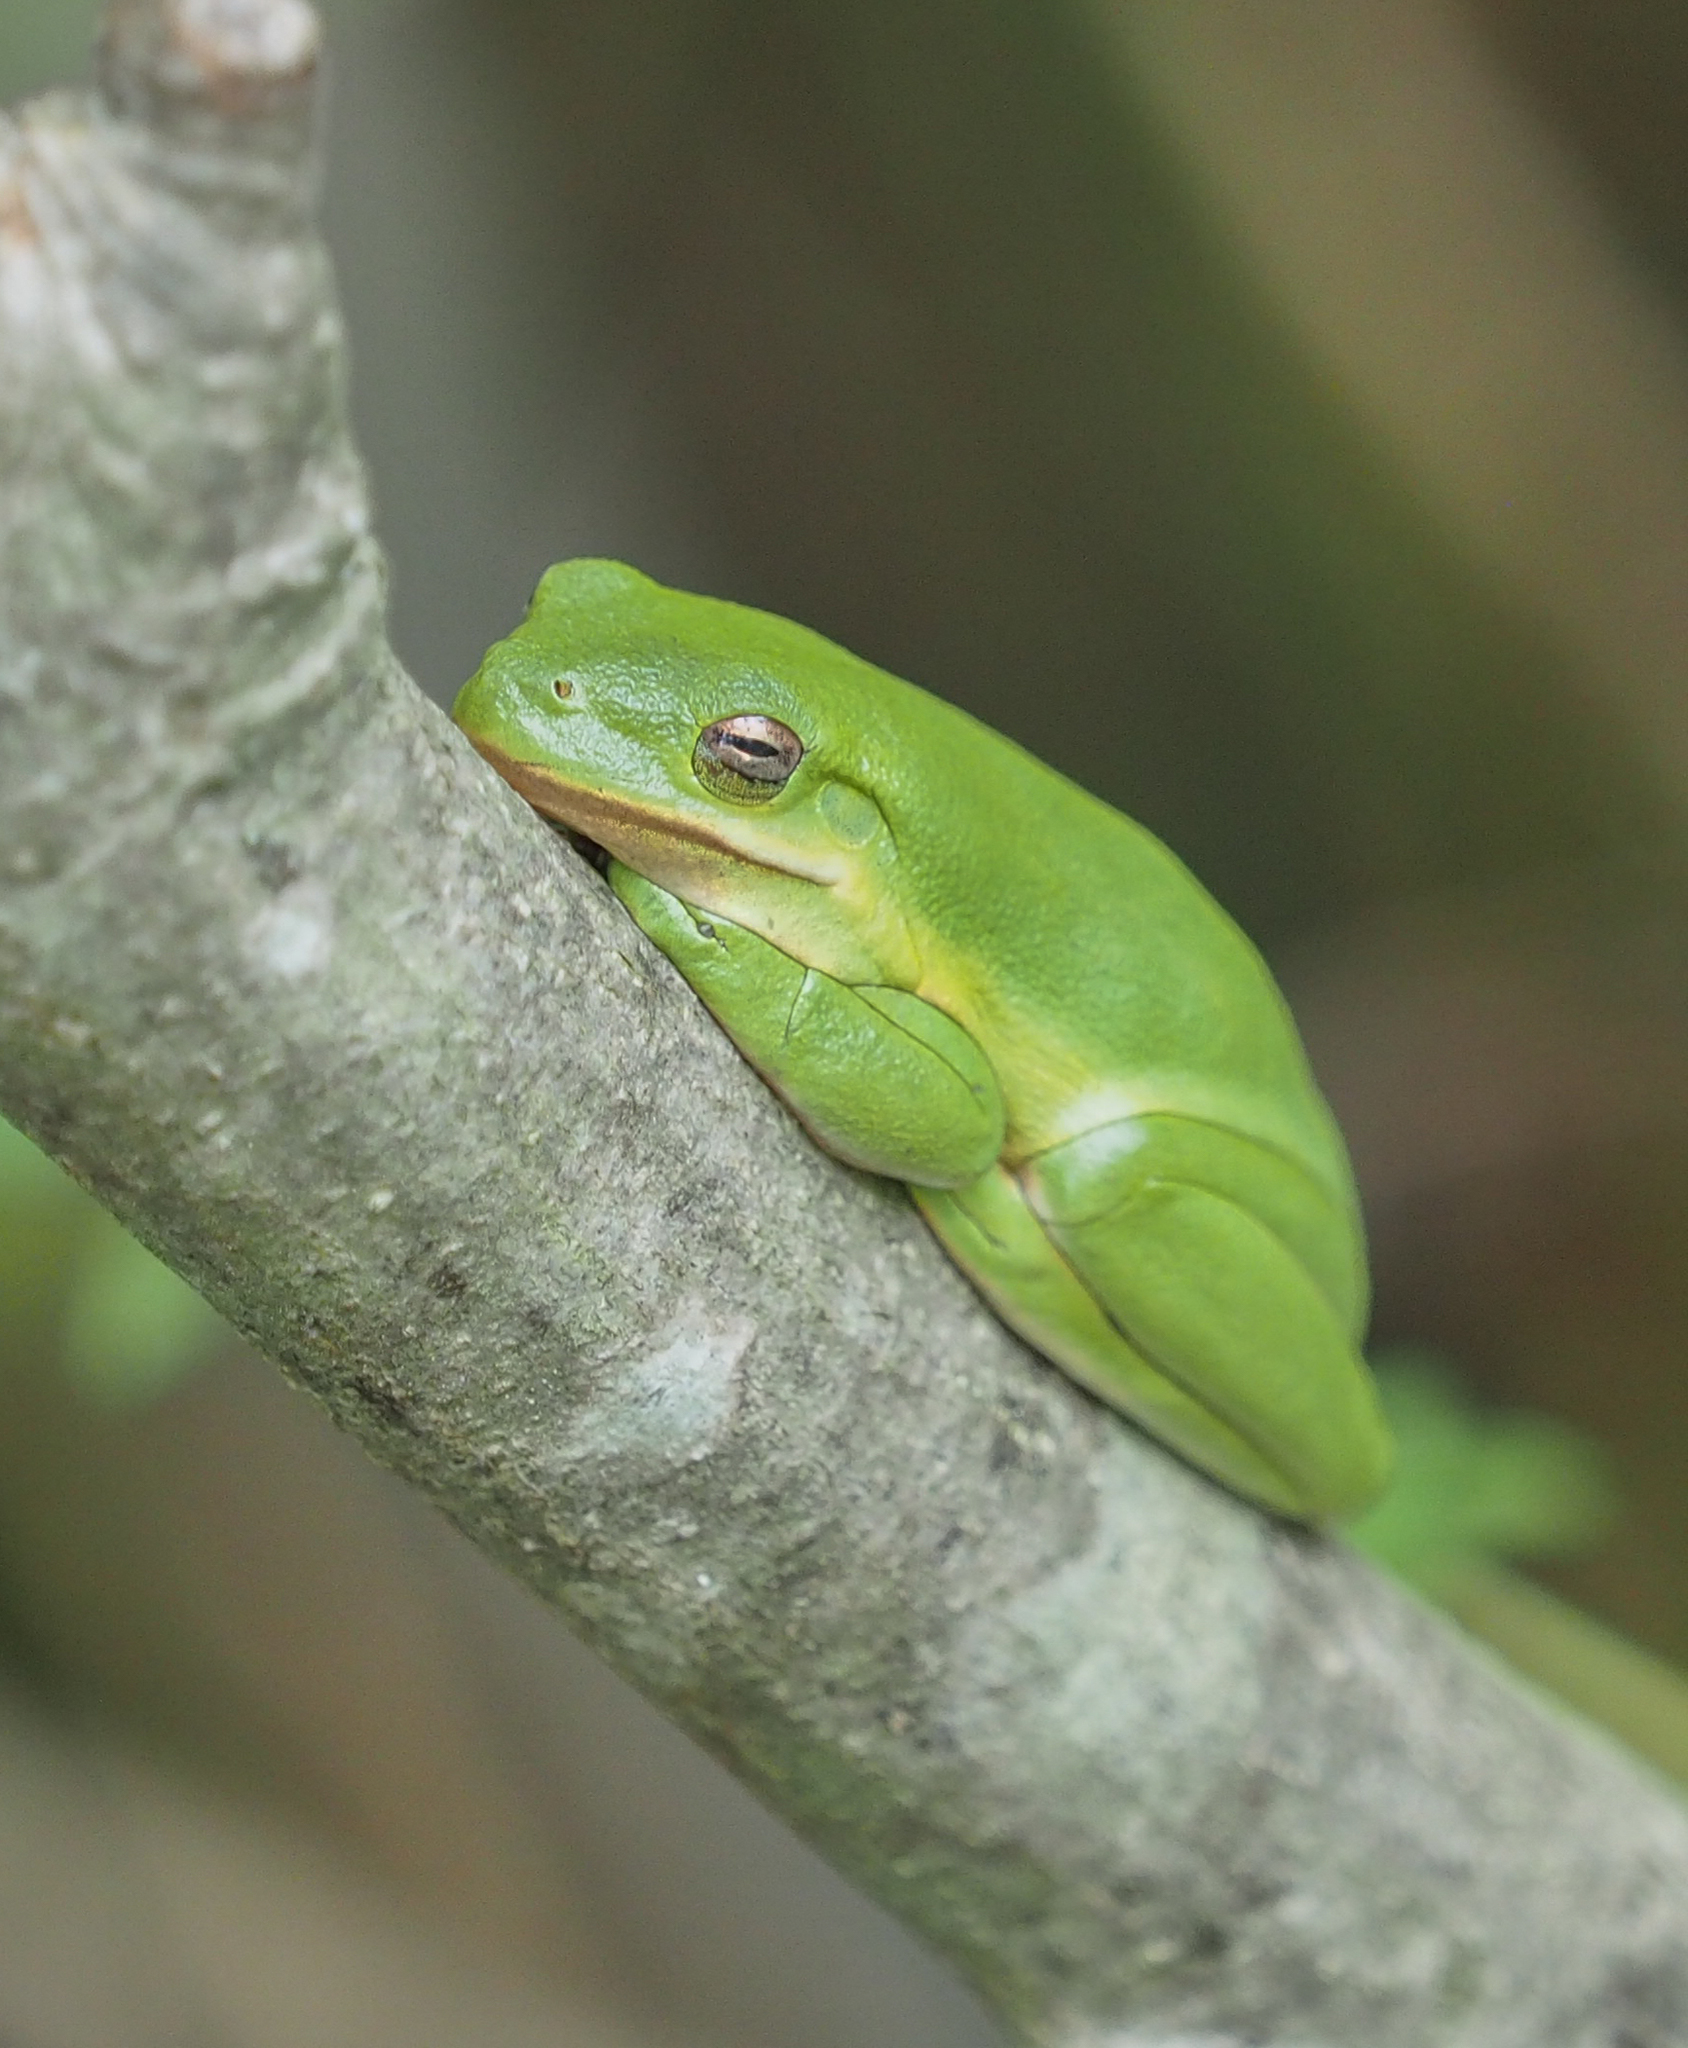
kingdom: Animalia
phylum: Chordata
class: Amphibia
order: Anura
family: Hylidae
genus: Dryophytes
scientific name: Dryophytes cinereus
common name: Green treefrog
